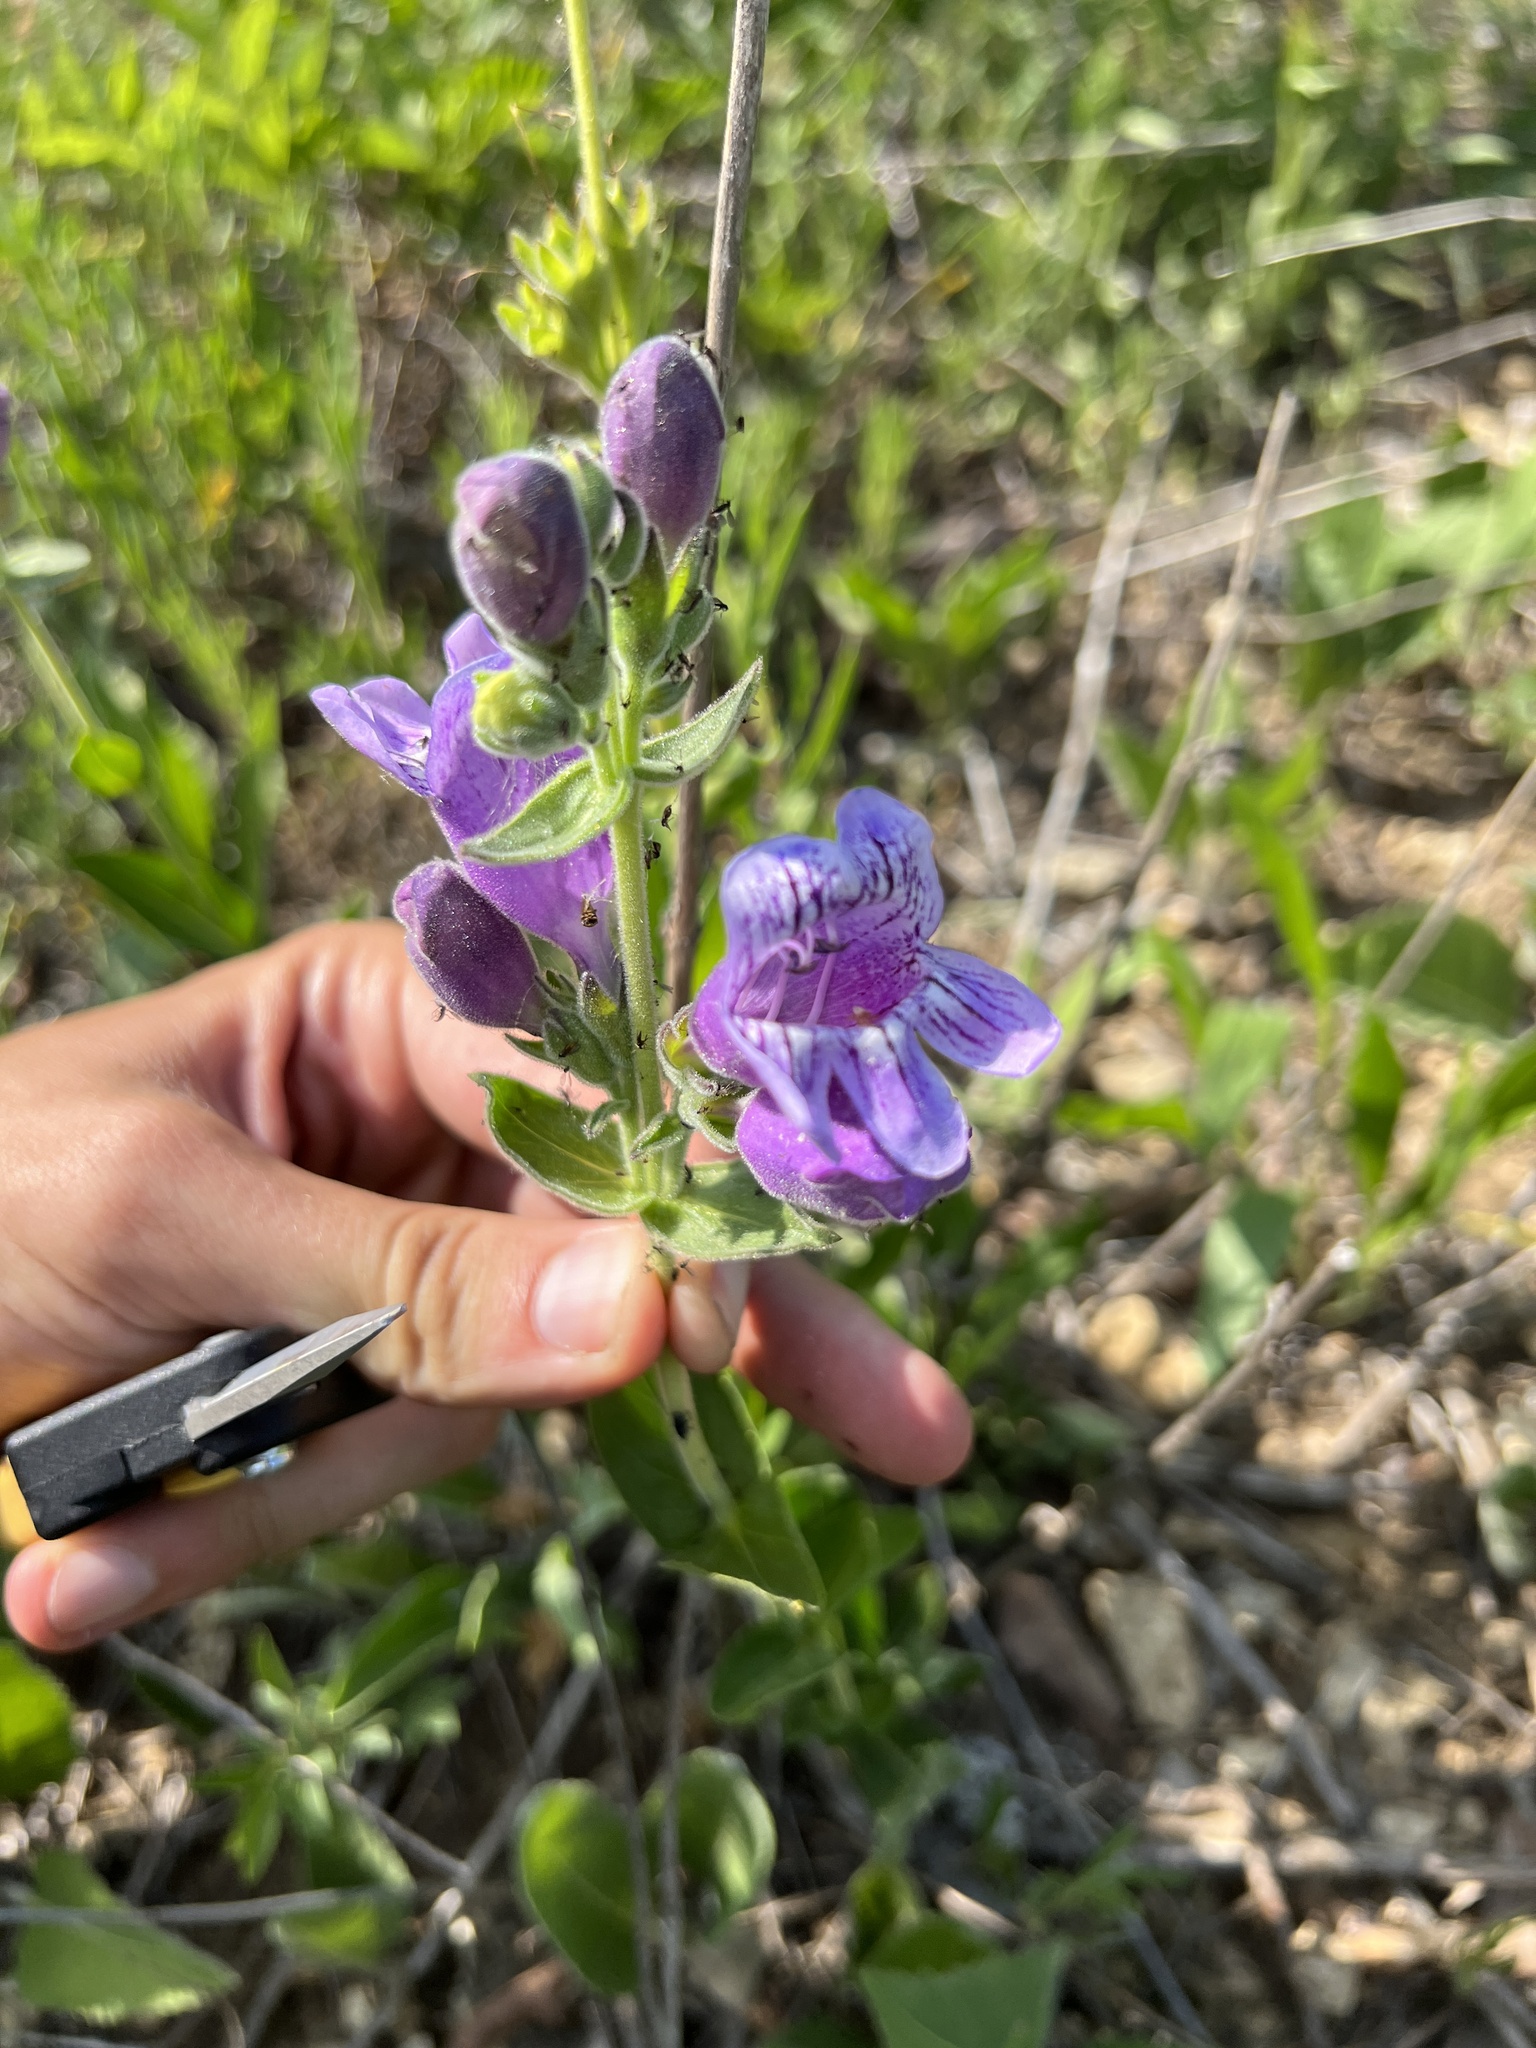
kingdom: Plantae
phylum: Tracheophyta
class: Magnoliopsida
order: Lamiales
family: Plantaginaceae
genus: Penstemon
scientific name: Penstemon cobaea
